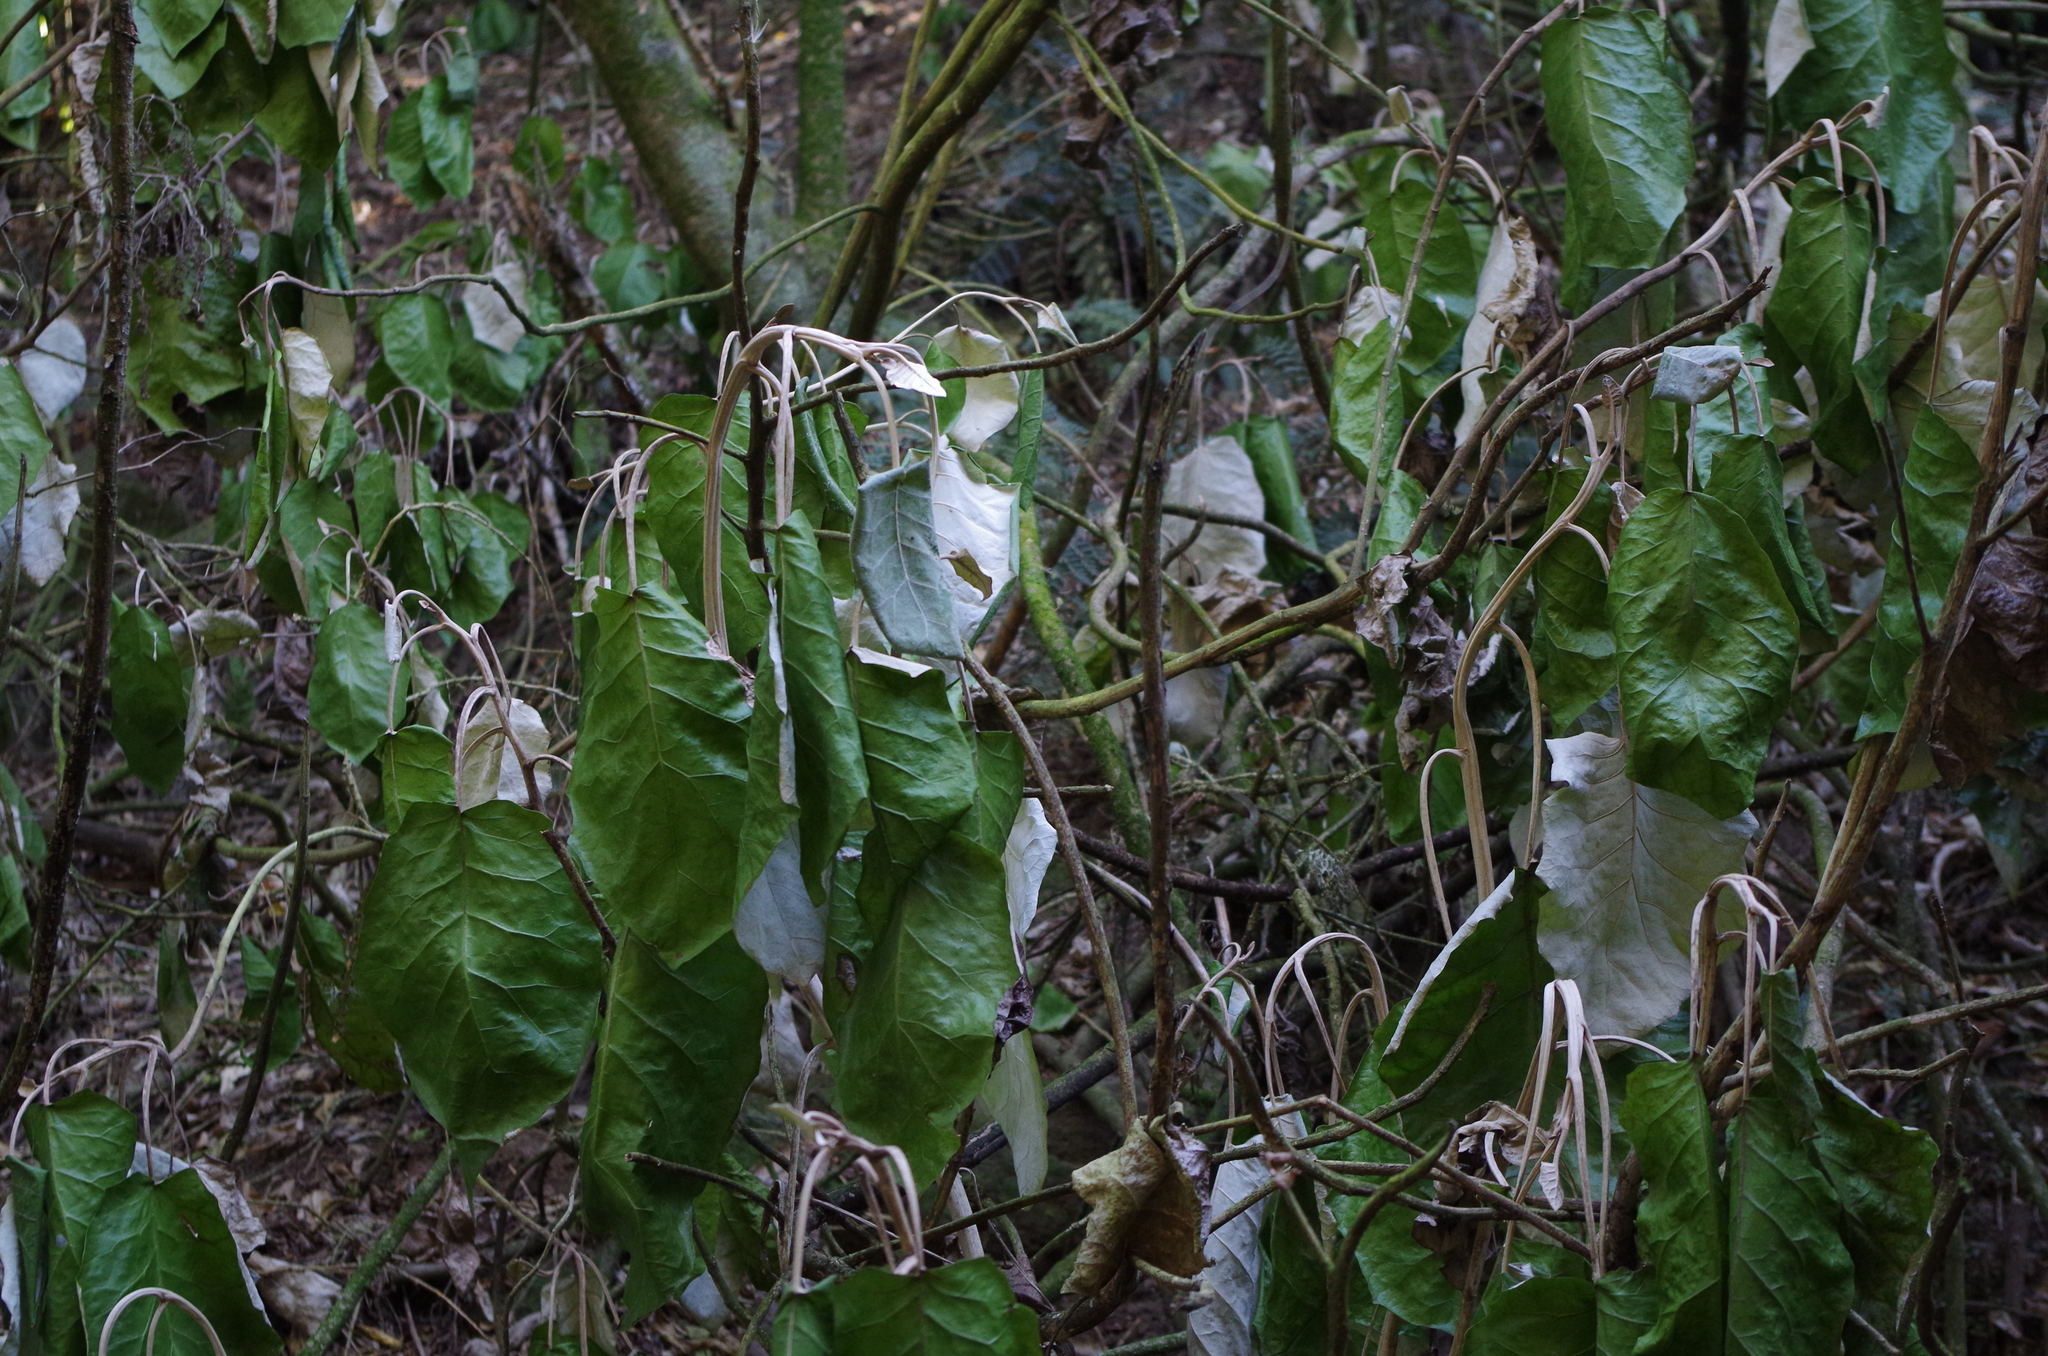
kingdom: Plantae
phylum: Tracheophyta
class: Magnoliopsida
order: Asterales
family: Asteraceae
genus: Brachyglottis
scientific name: Brachyglottis repanda
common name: Hedge ragwort
